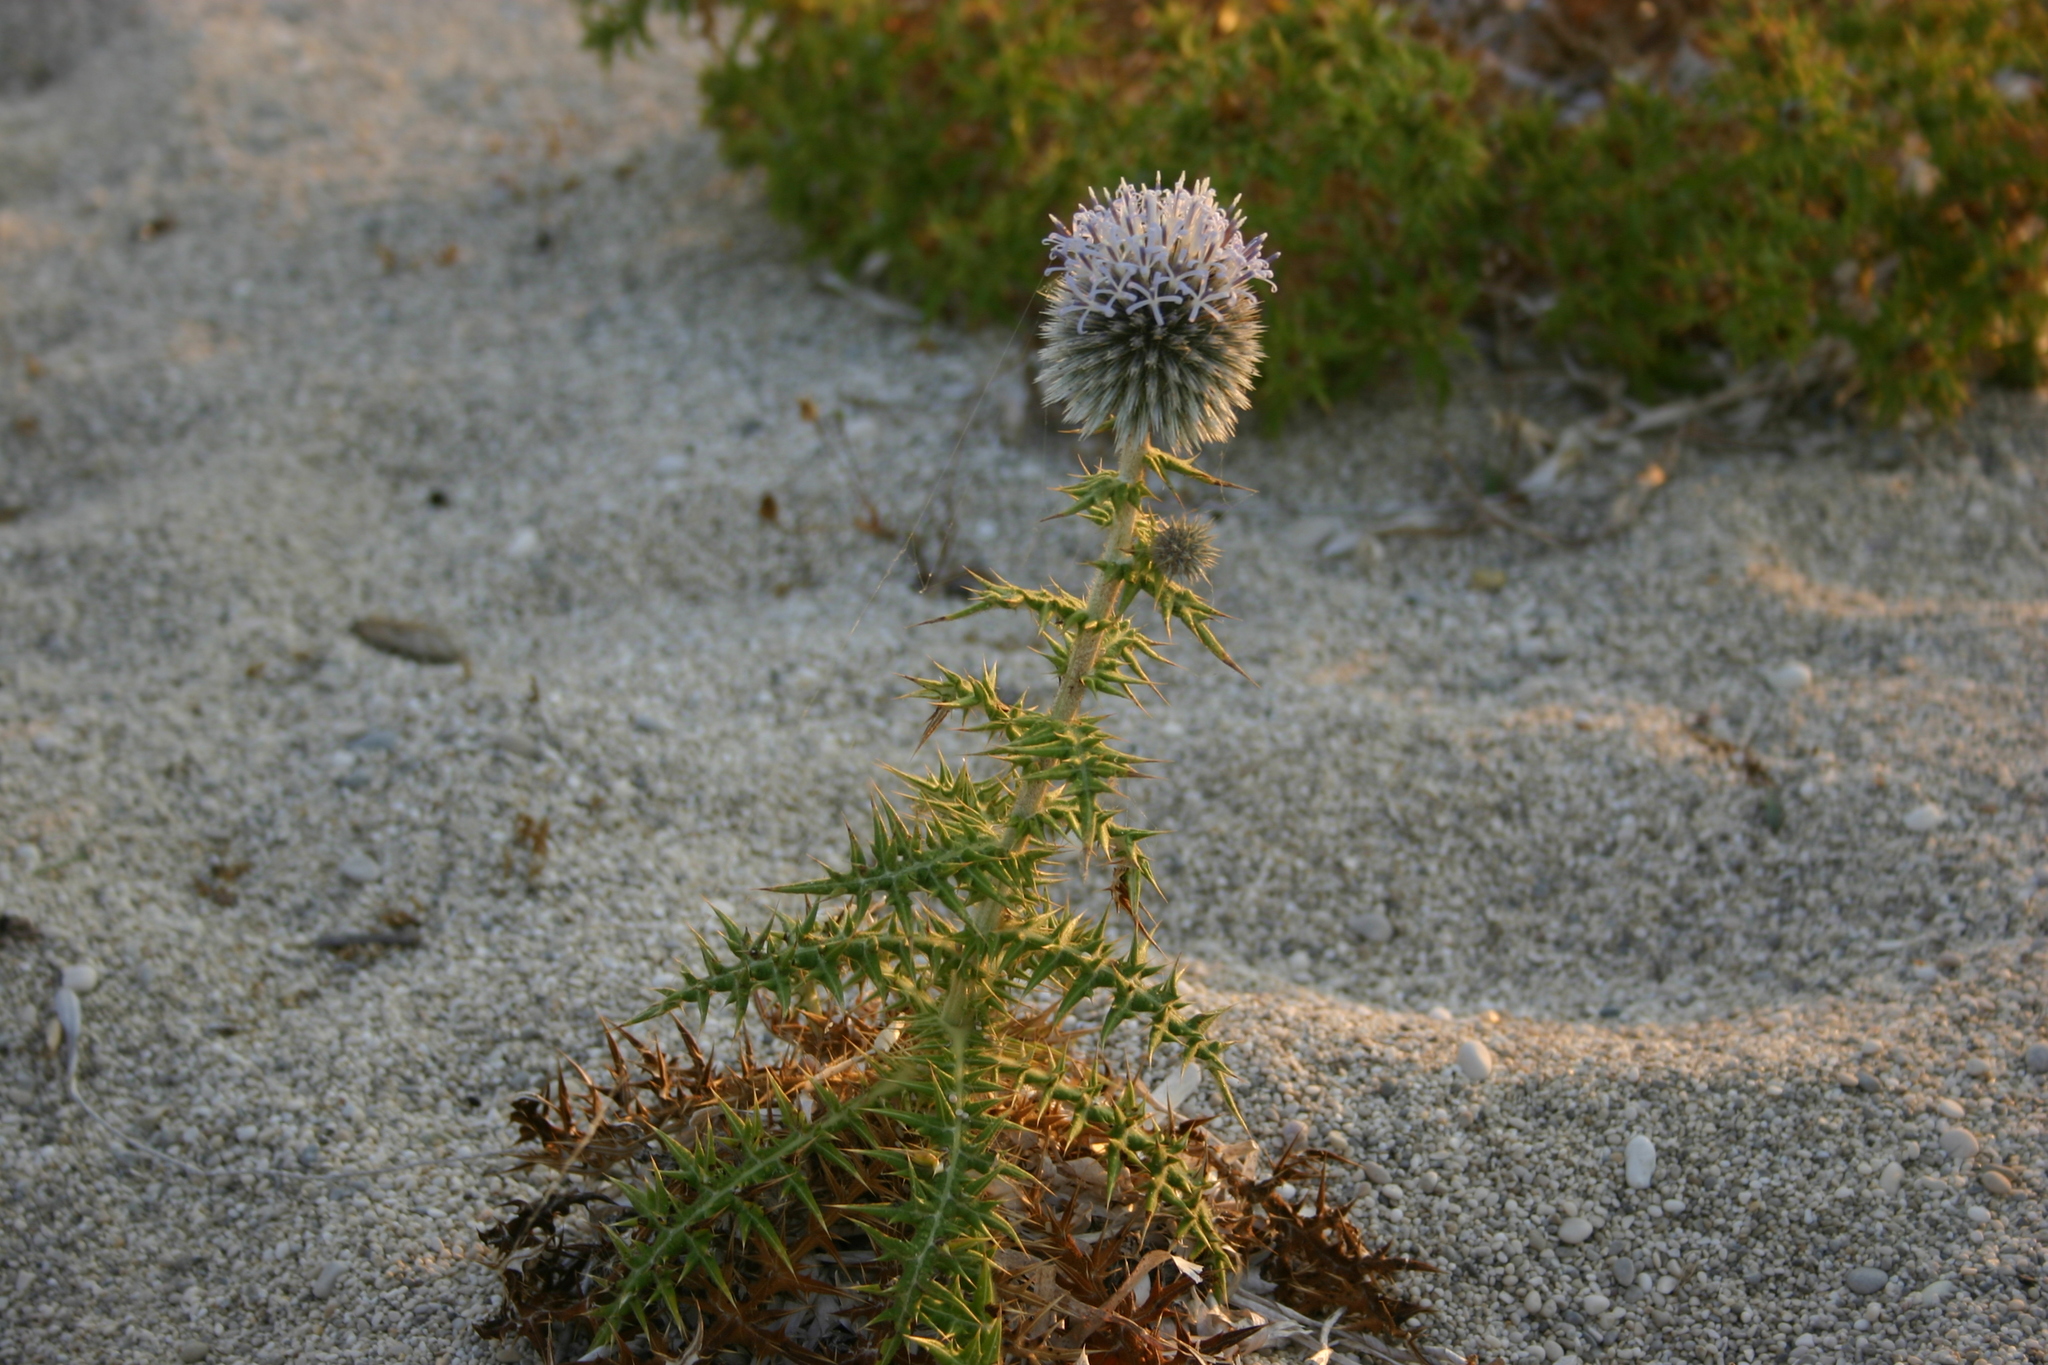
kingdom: Plantae
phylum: Tracheophyta
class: Magnoliopsida
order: Asterales
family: Asteraceae
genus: Echinops
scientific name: Echinops spinosissimus
